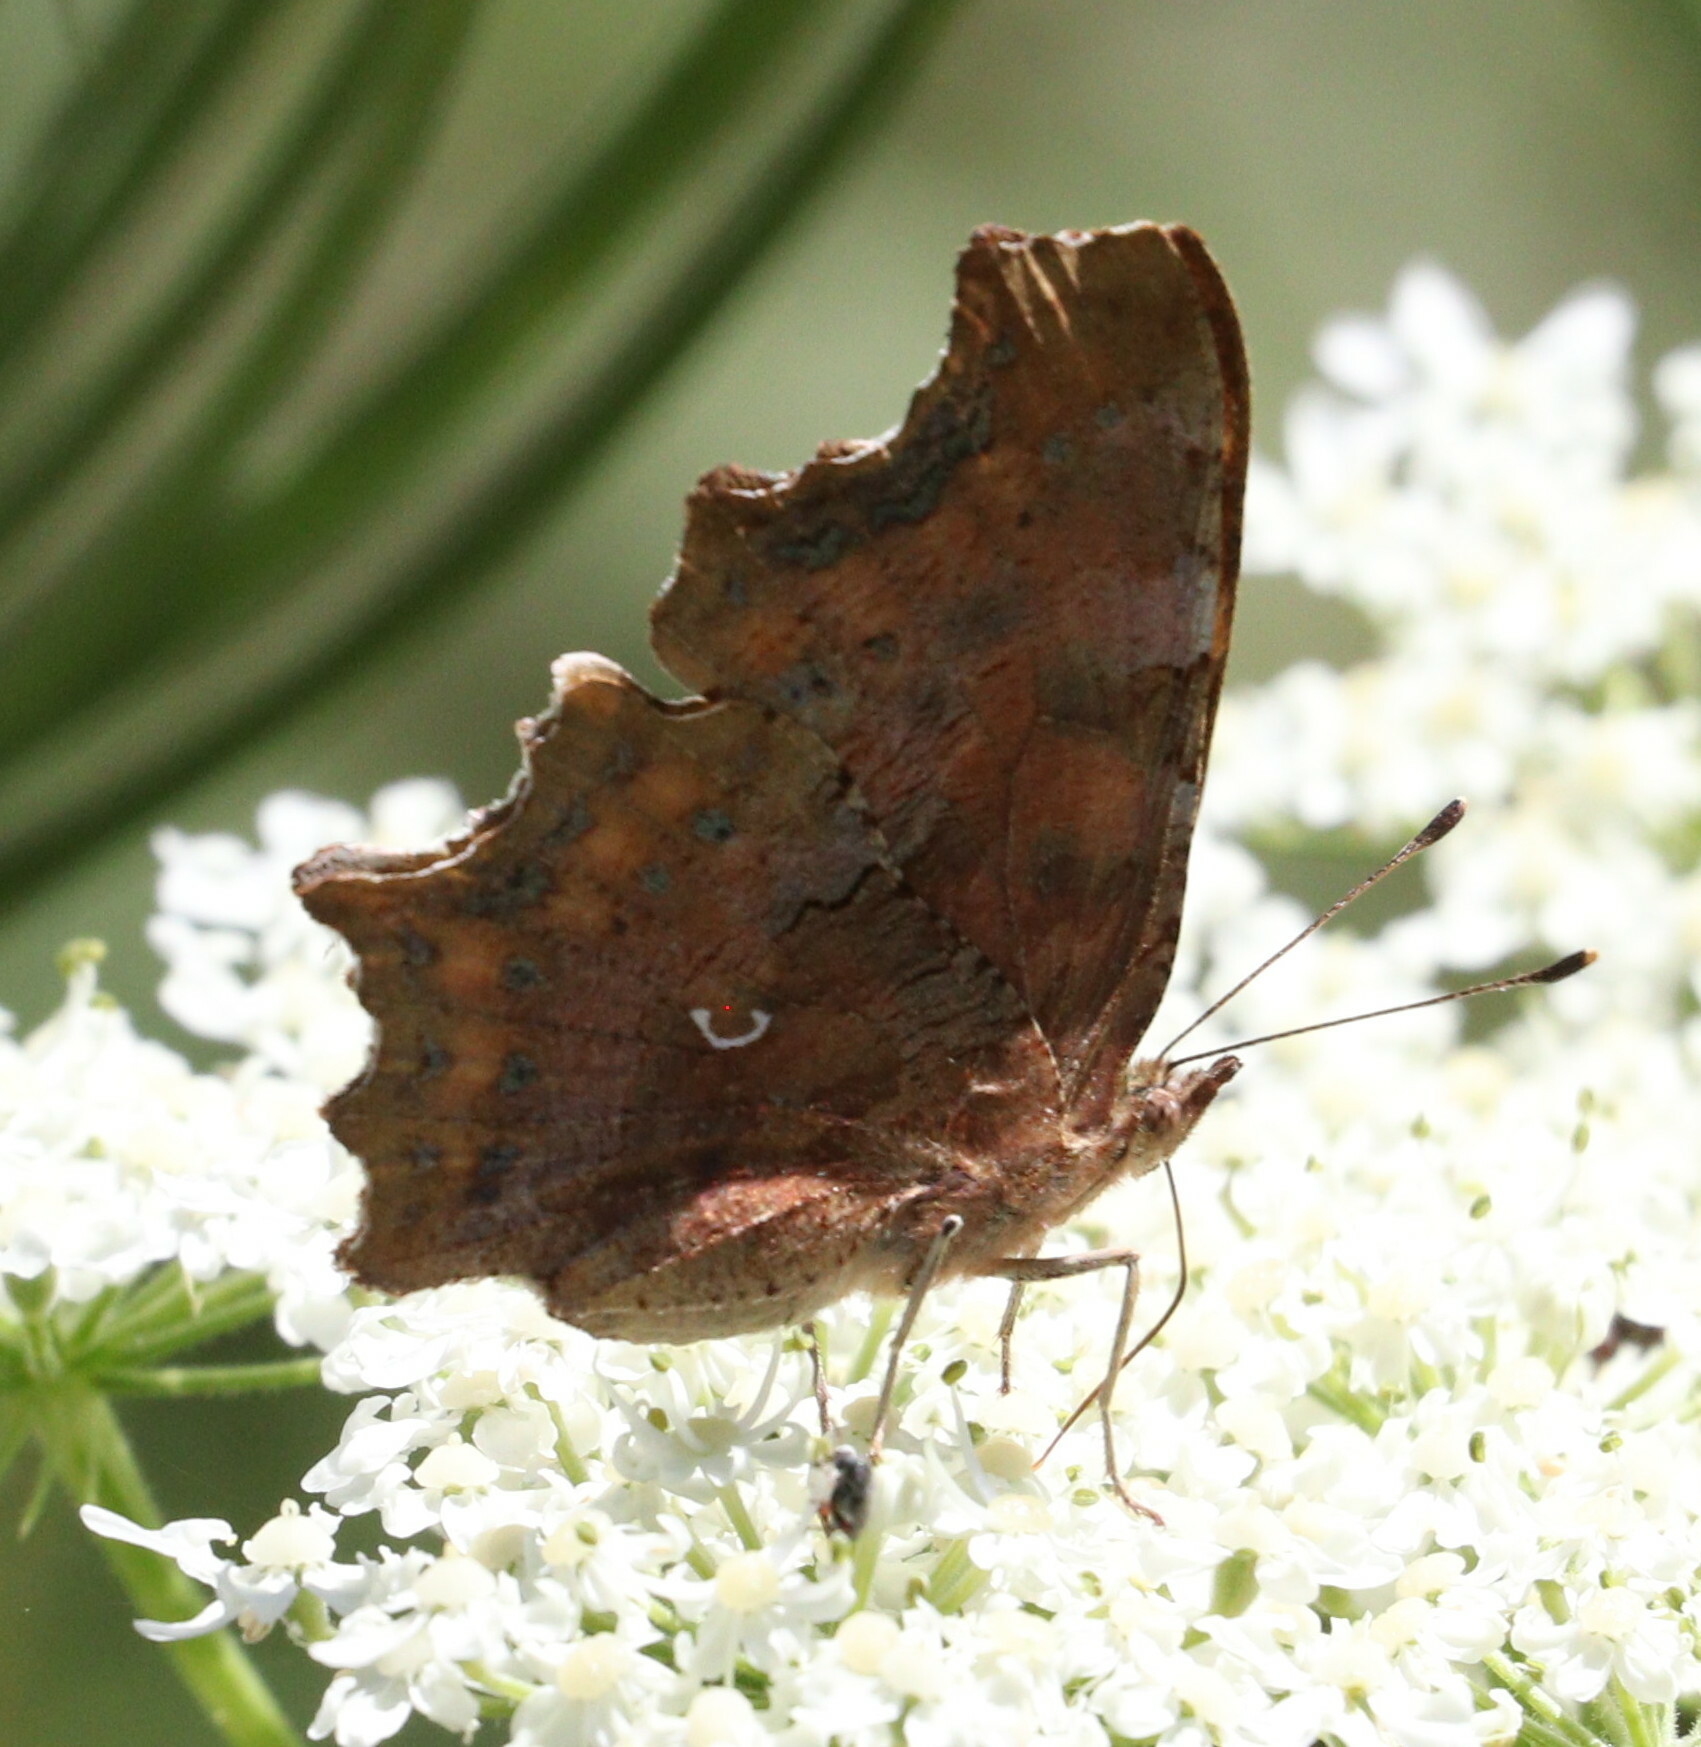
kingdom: Animalia
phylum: Arthropoda
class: Insecta
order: Lepidoptera
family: Nymphalidae
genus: Polygonia
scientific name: Polygonia c-album
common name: Comma
